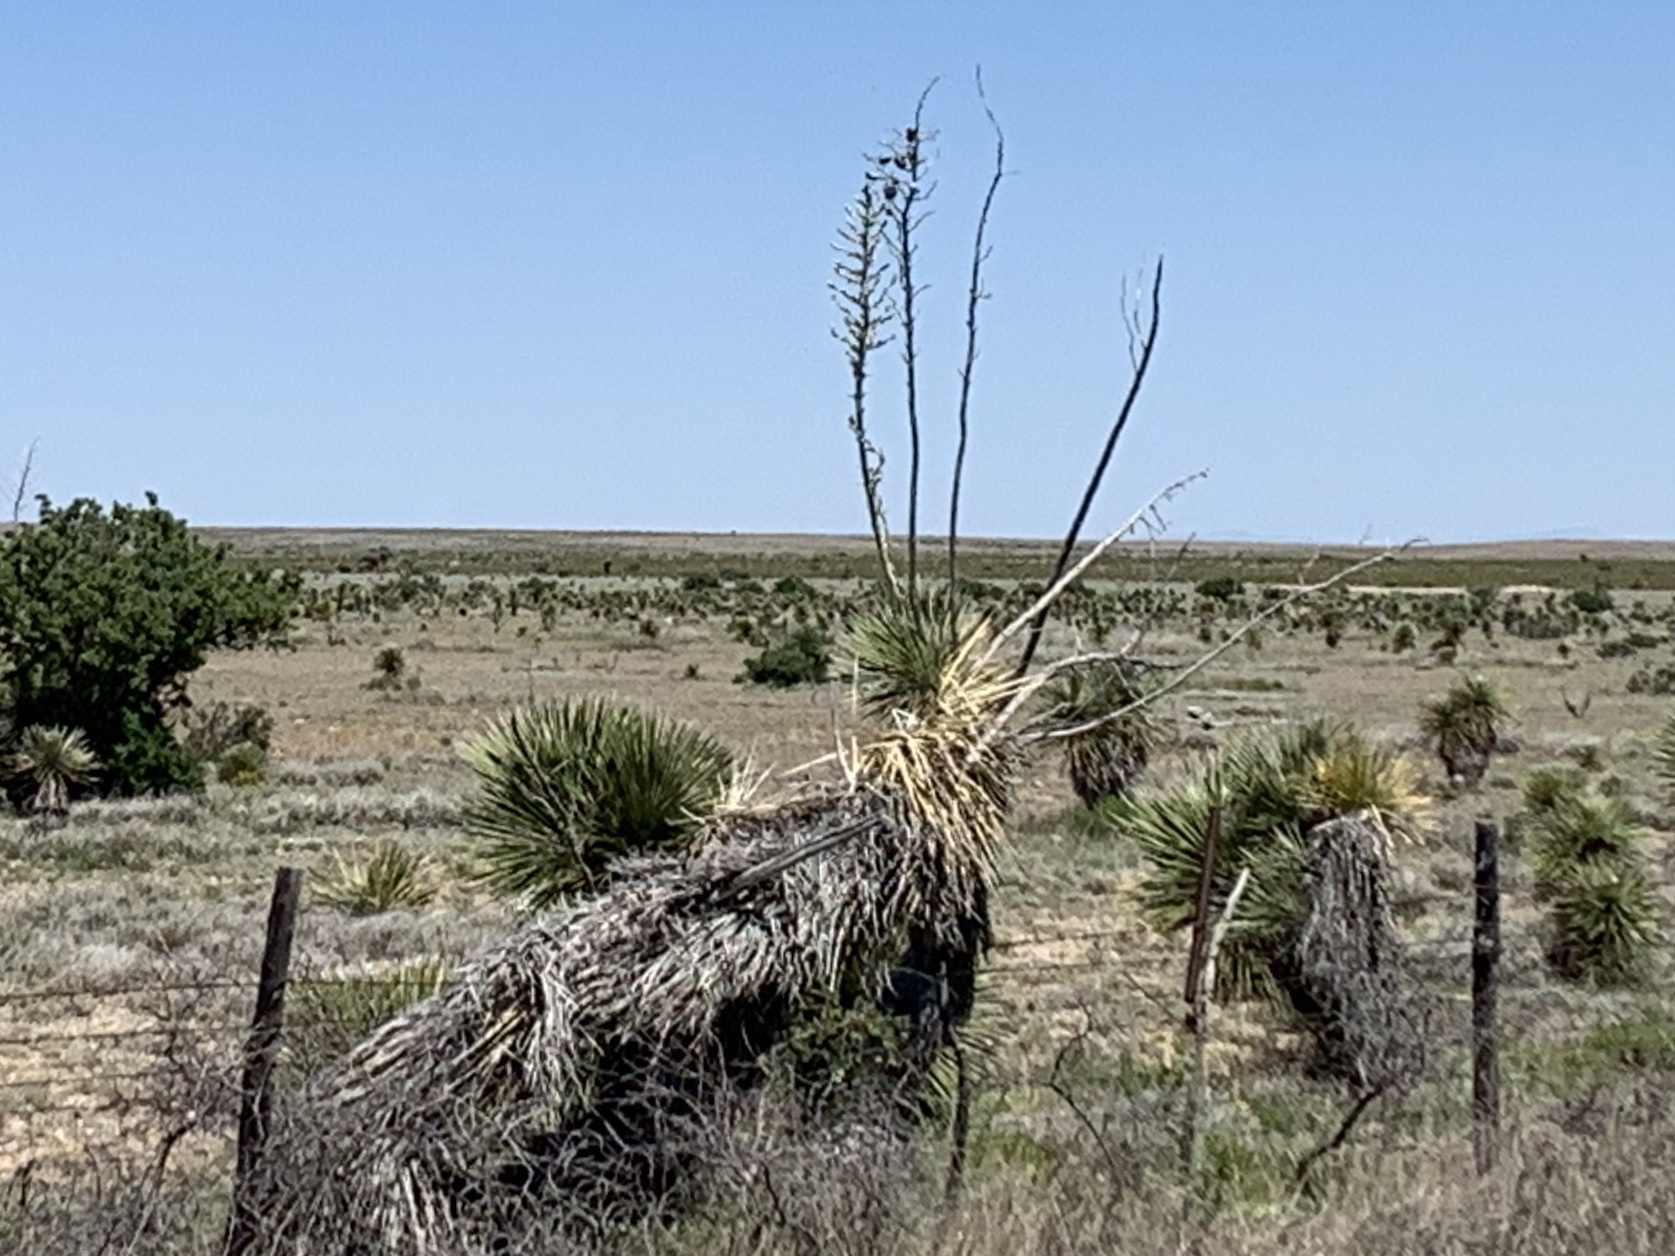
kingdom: Plantae
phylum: Tracheophyta
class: Liliopsida
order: Asparagales
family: Asparagaceae
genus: Yucca
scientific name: Yucca elata
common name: Palmella
